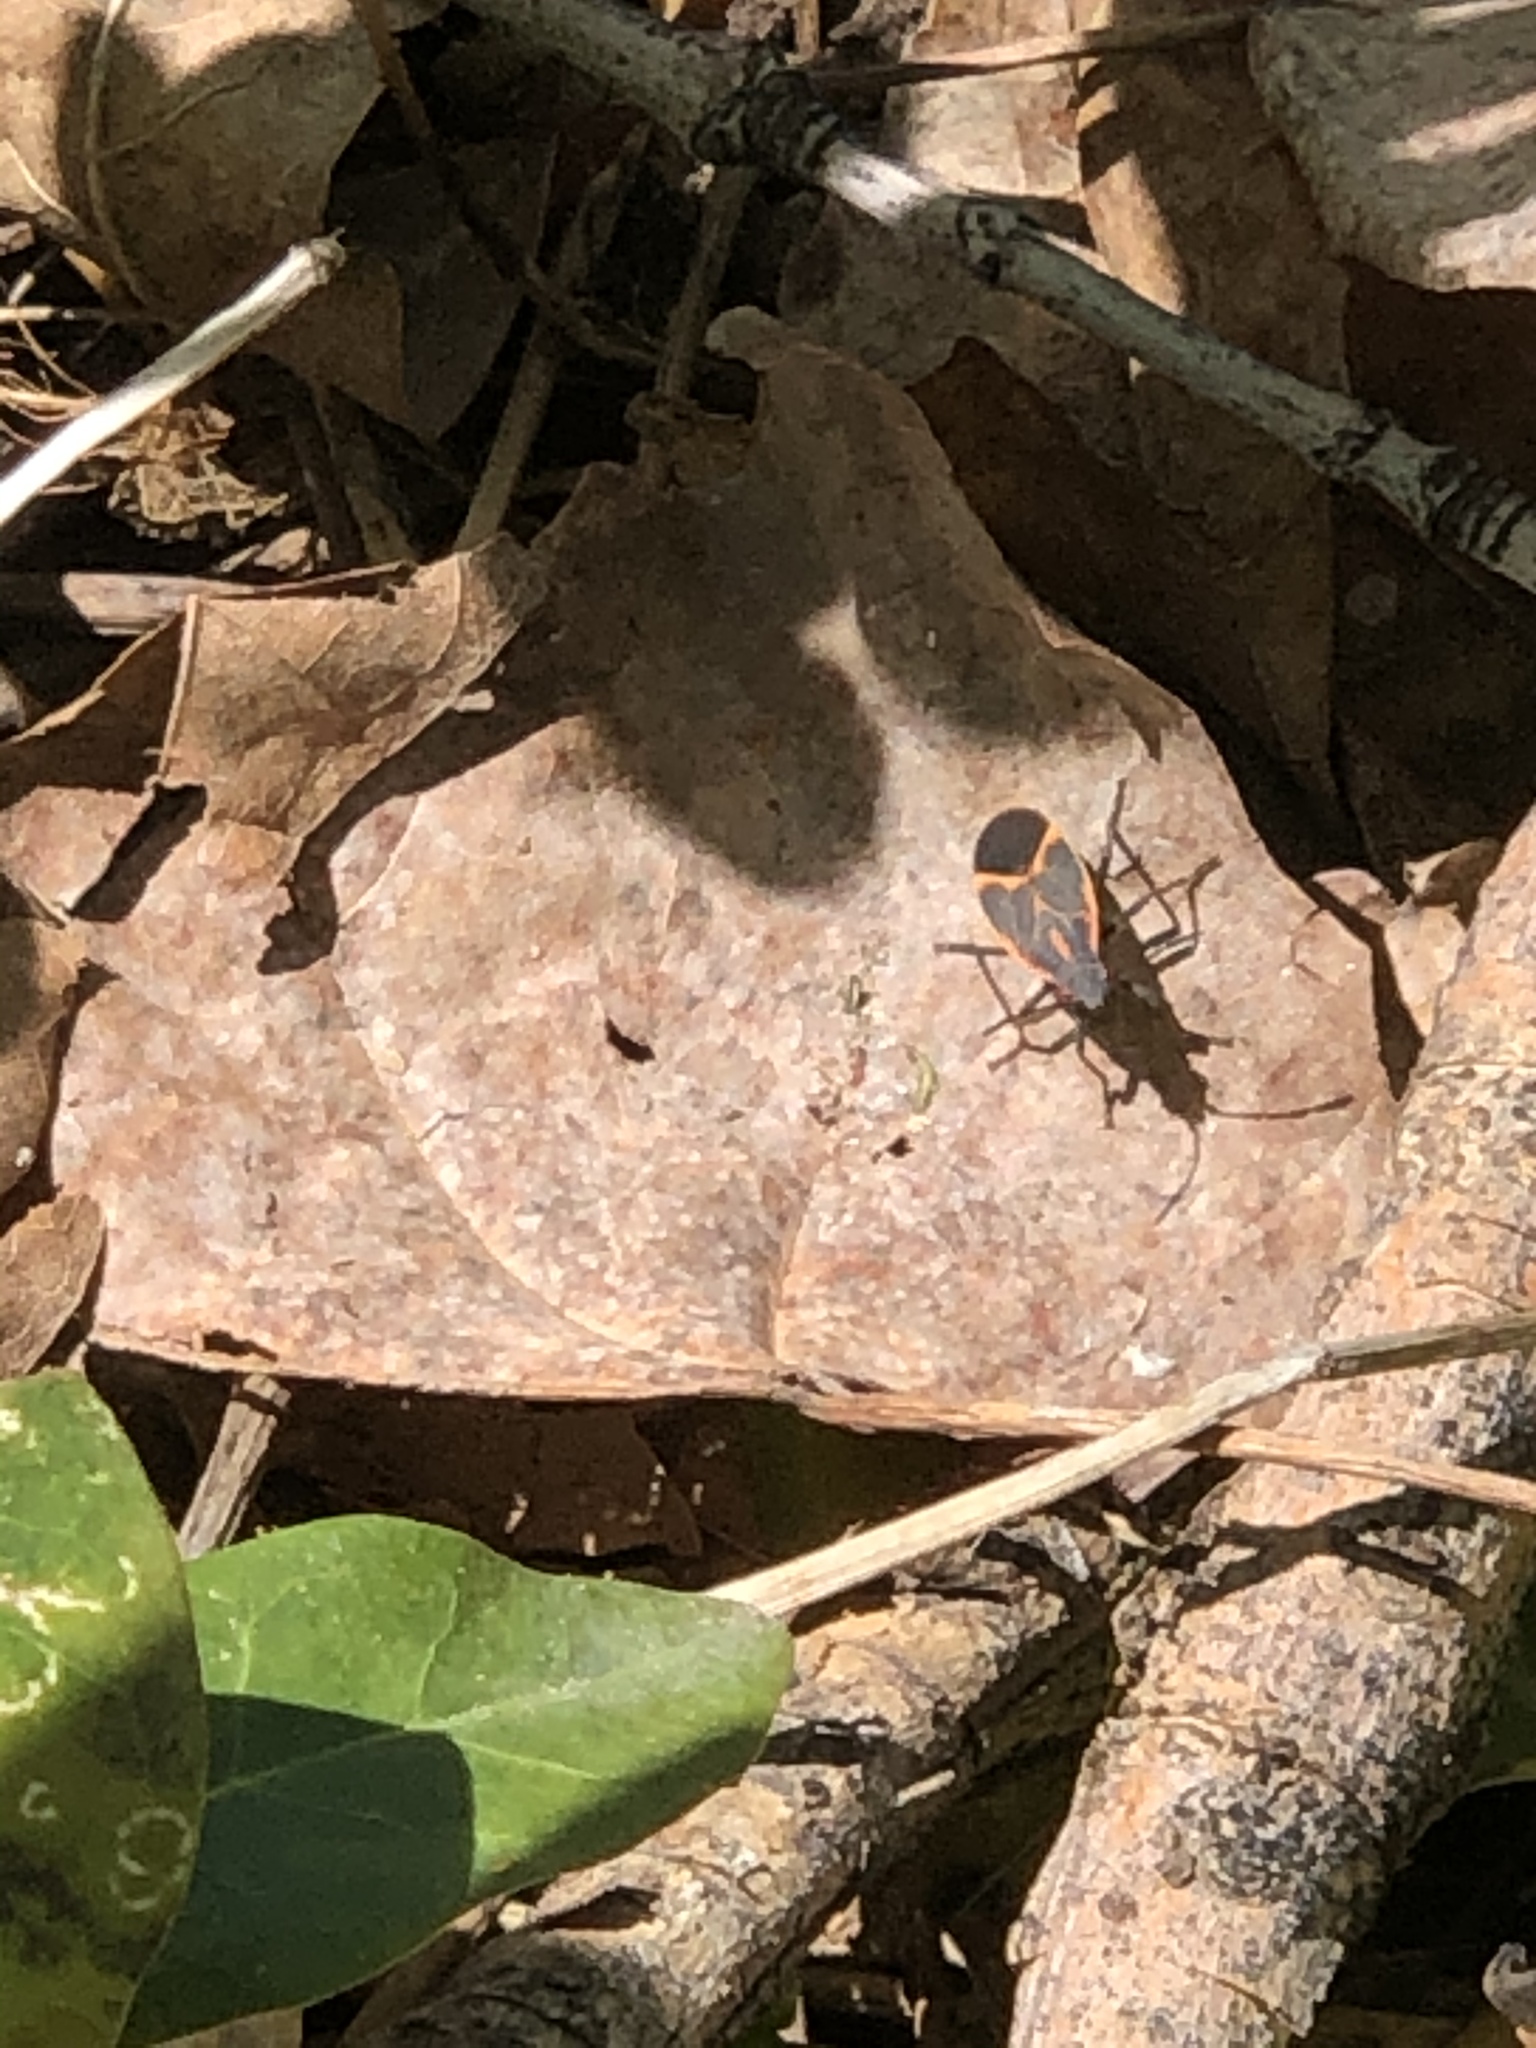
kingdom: Animalia
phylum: Arthropoda
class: Insecta
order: Hemiptera
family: Rhopalidae
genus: Boisea
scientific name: Boisea trivittata
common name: Boxelder bug
